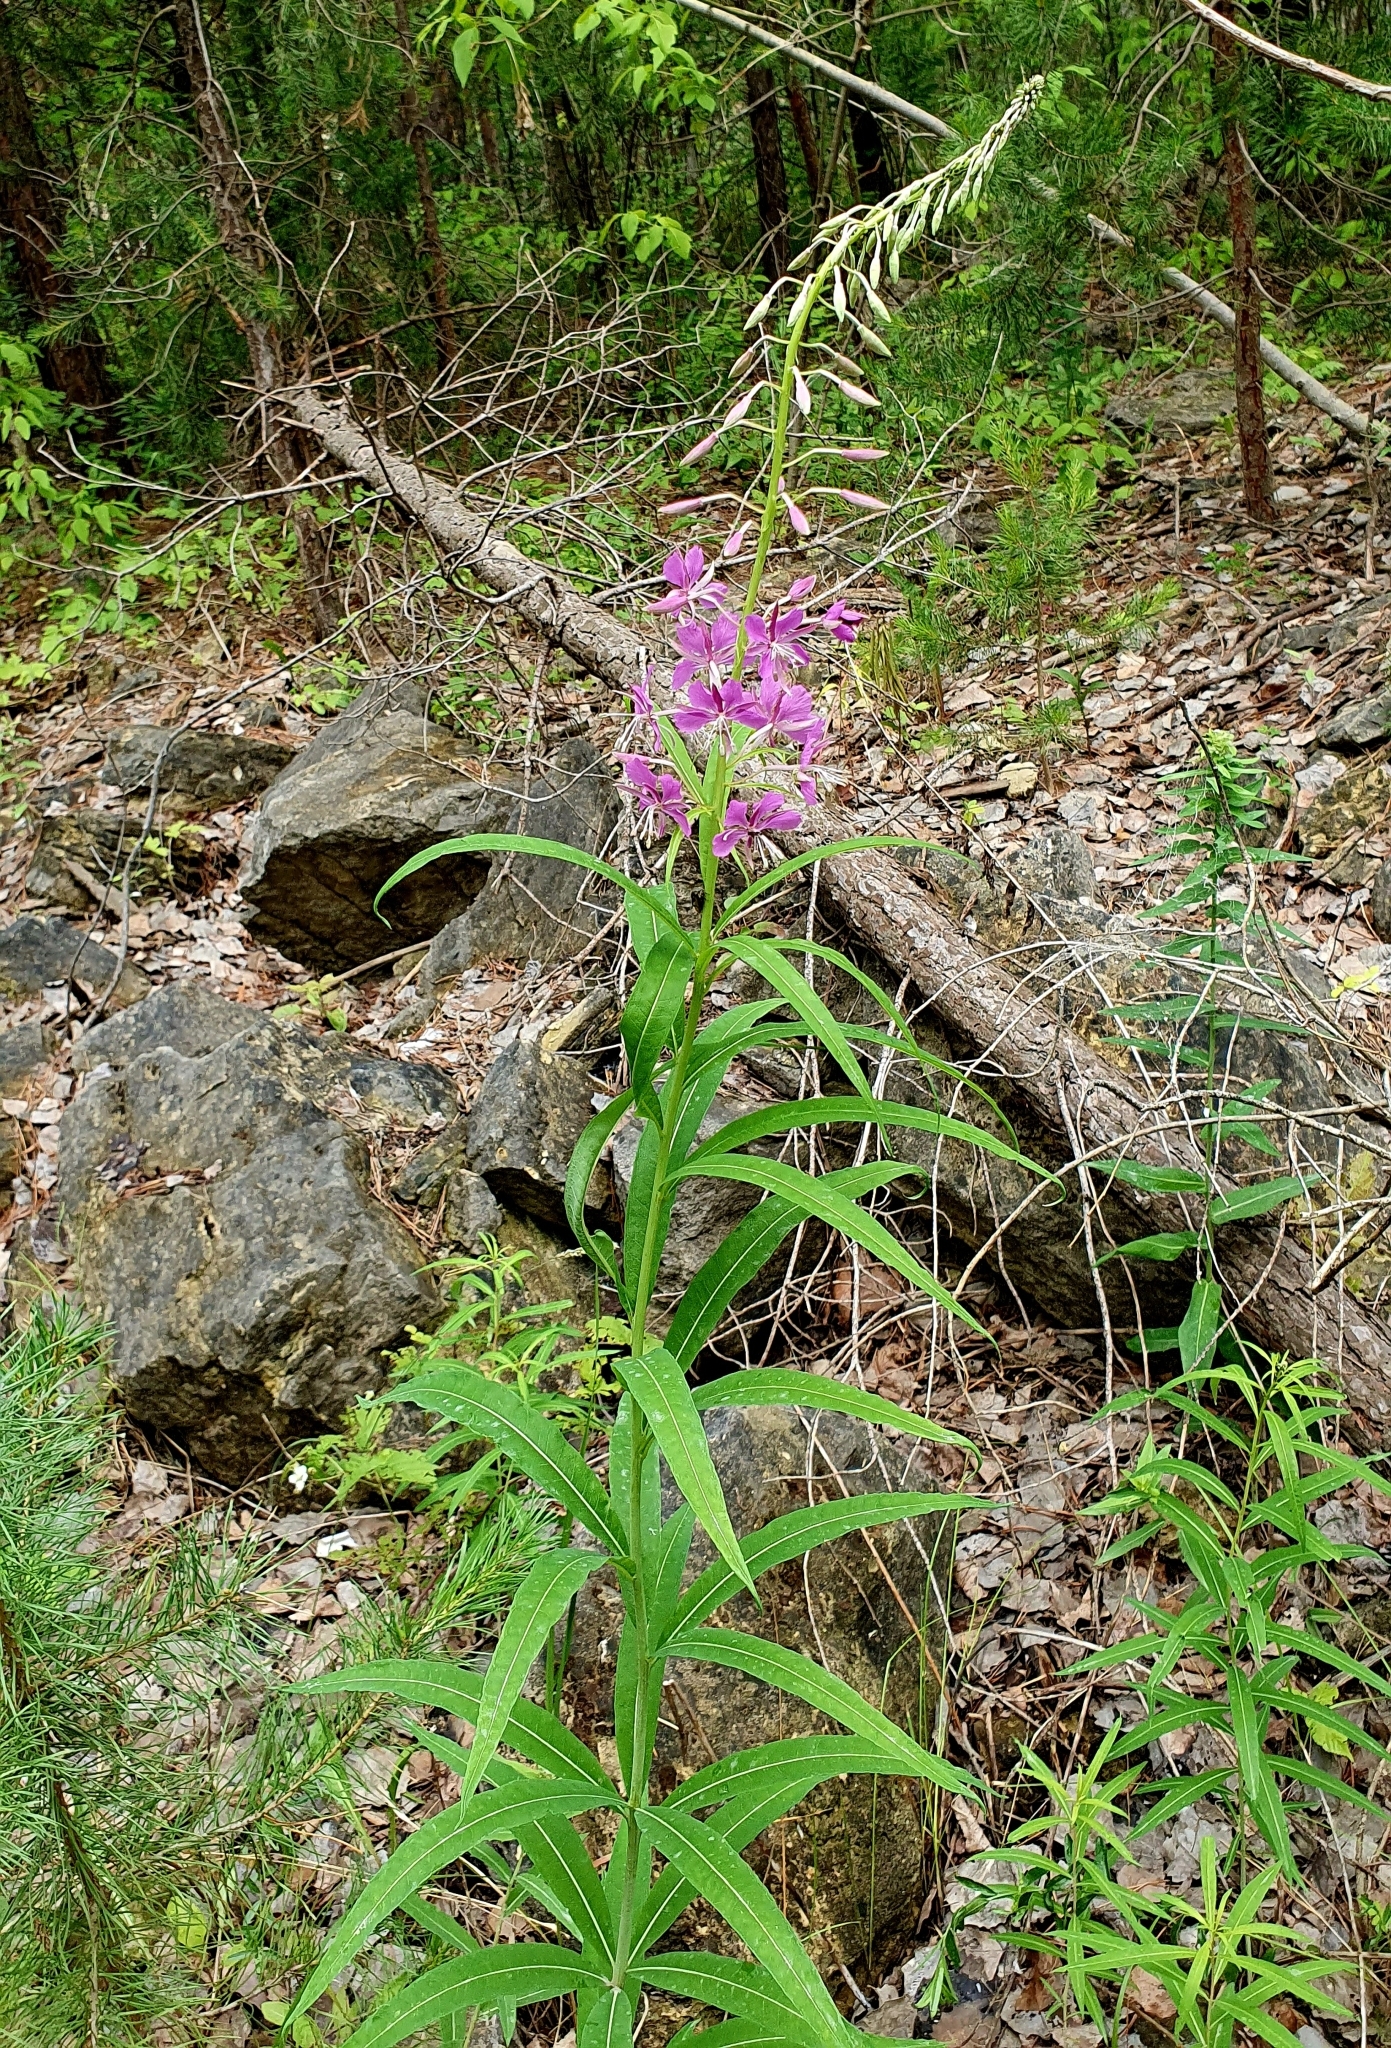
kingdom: Plantae
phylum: Tracheophyta
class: Magnoliopsida
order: Myrtales
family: Onagraceae
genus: Chamaenerion
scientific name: Chamaenerion angustifolium
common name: Fireweed
